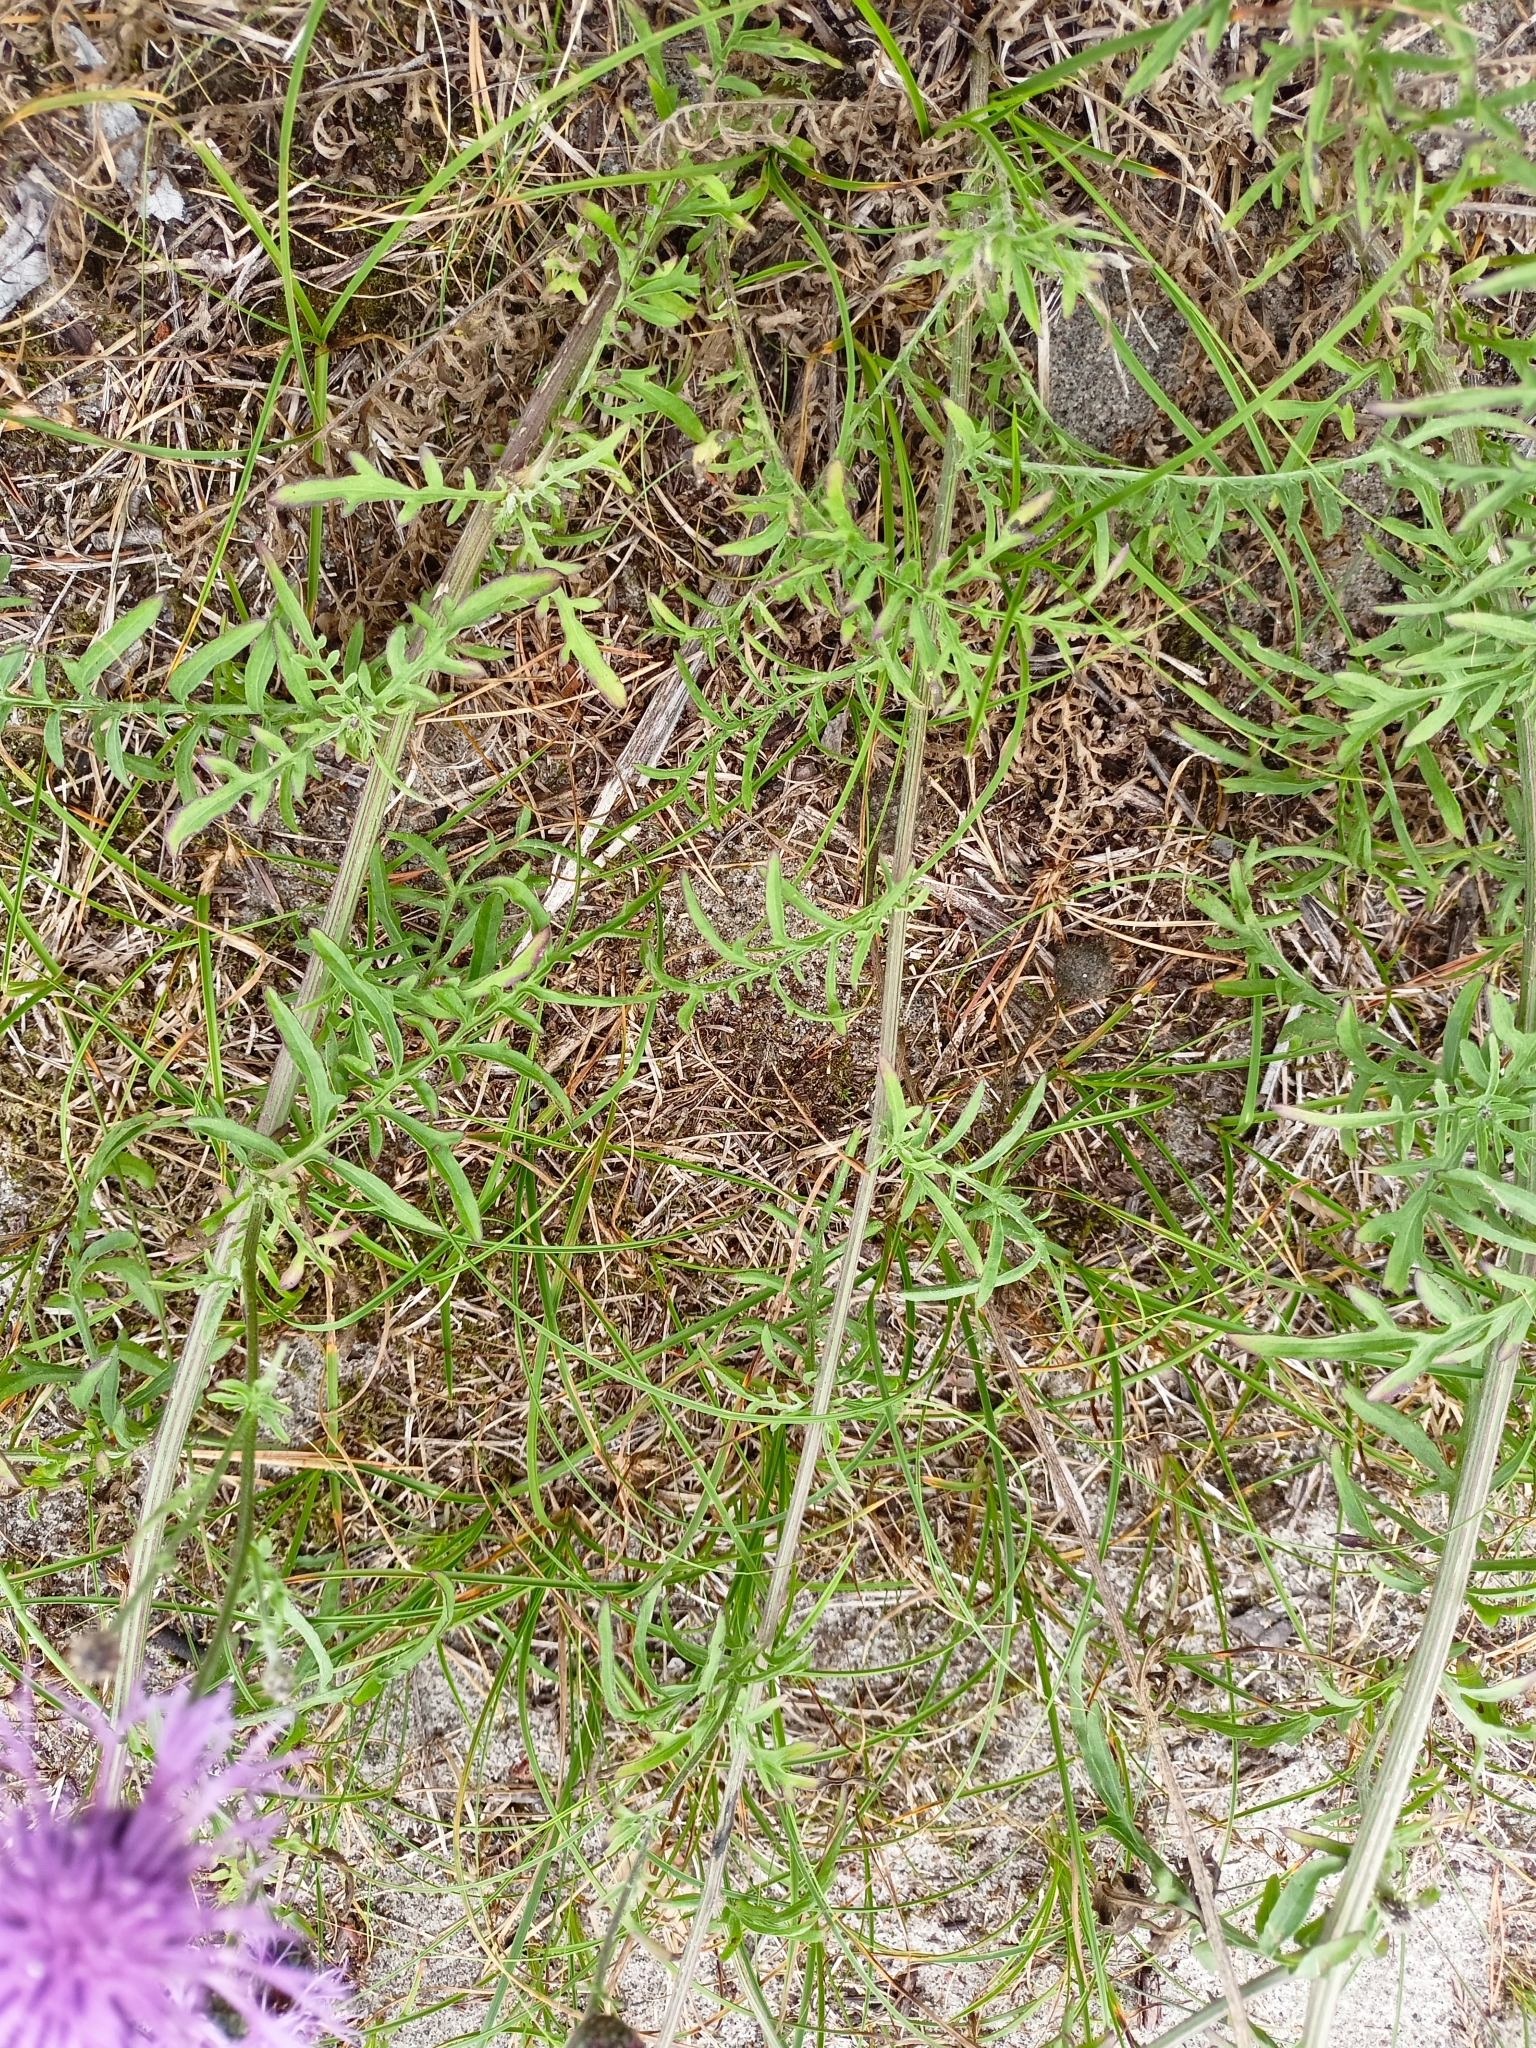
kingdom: Plantae
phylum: Tracheophyta
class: Magnoliopsida
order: Asterales
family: Asteraceae
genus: Centaurea
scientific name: Centaurea scabiosa
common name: Greater knapweed
